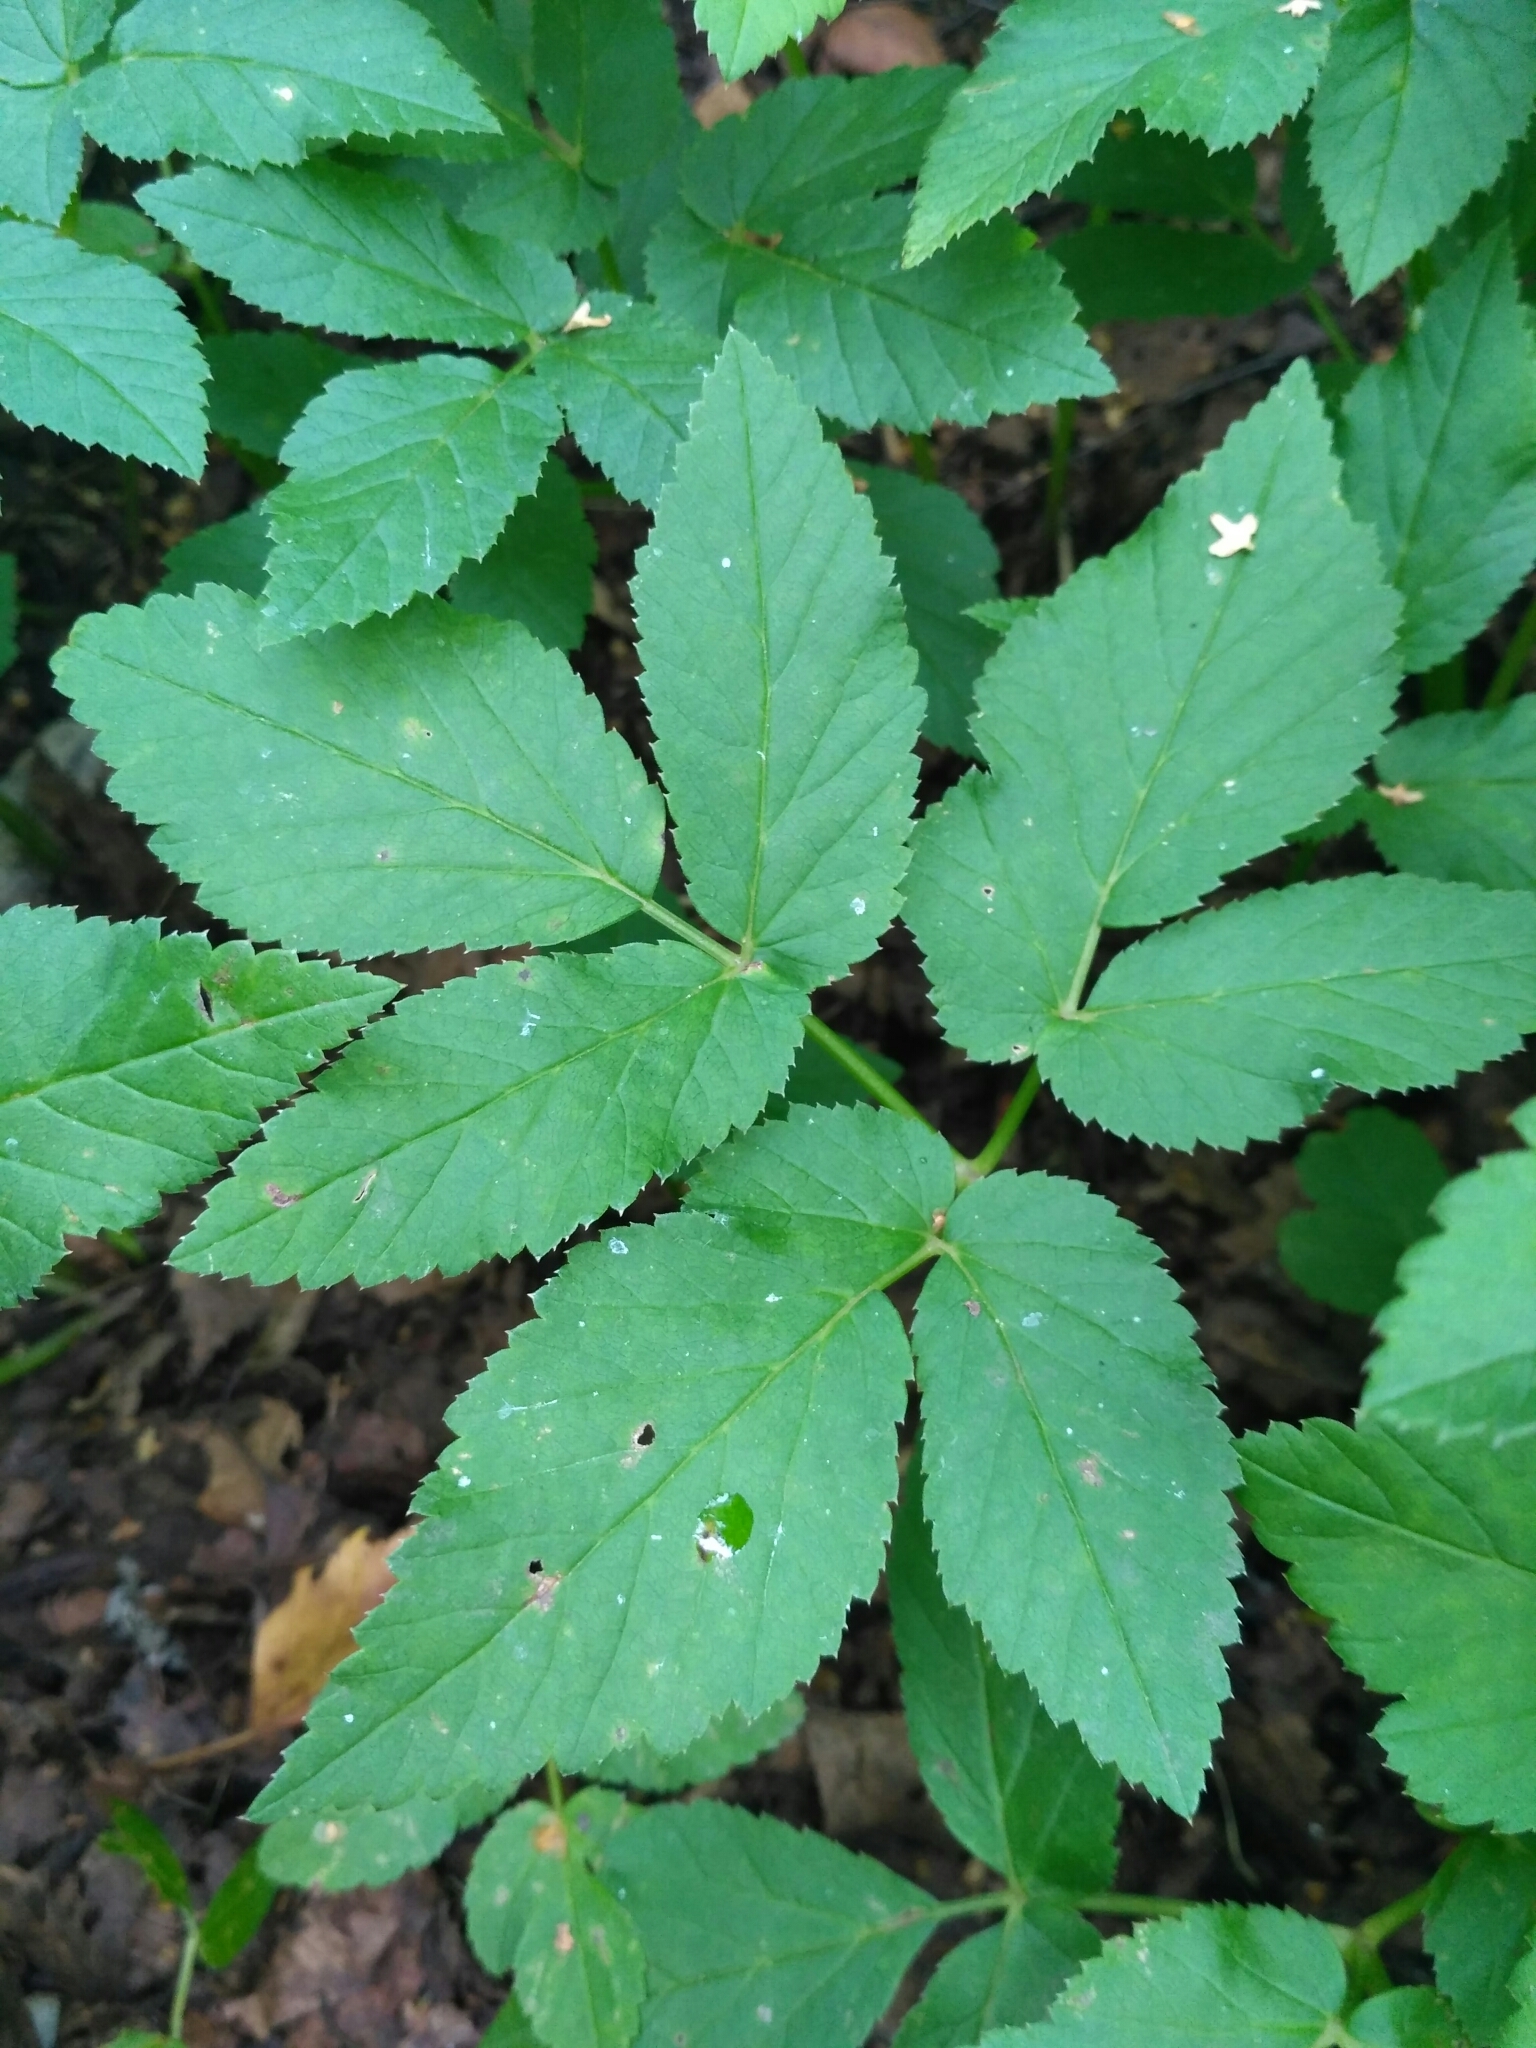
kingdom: Plantae
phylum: Tracheophyta
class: Magnoliopsida
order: Apiales
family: Apiaceae
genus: Aegopodium
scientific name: Aegopodium podagraria
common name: Ground-elder
